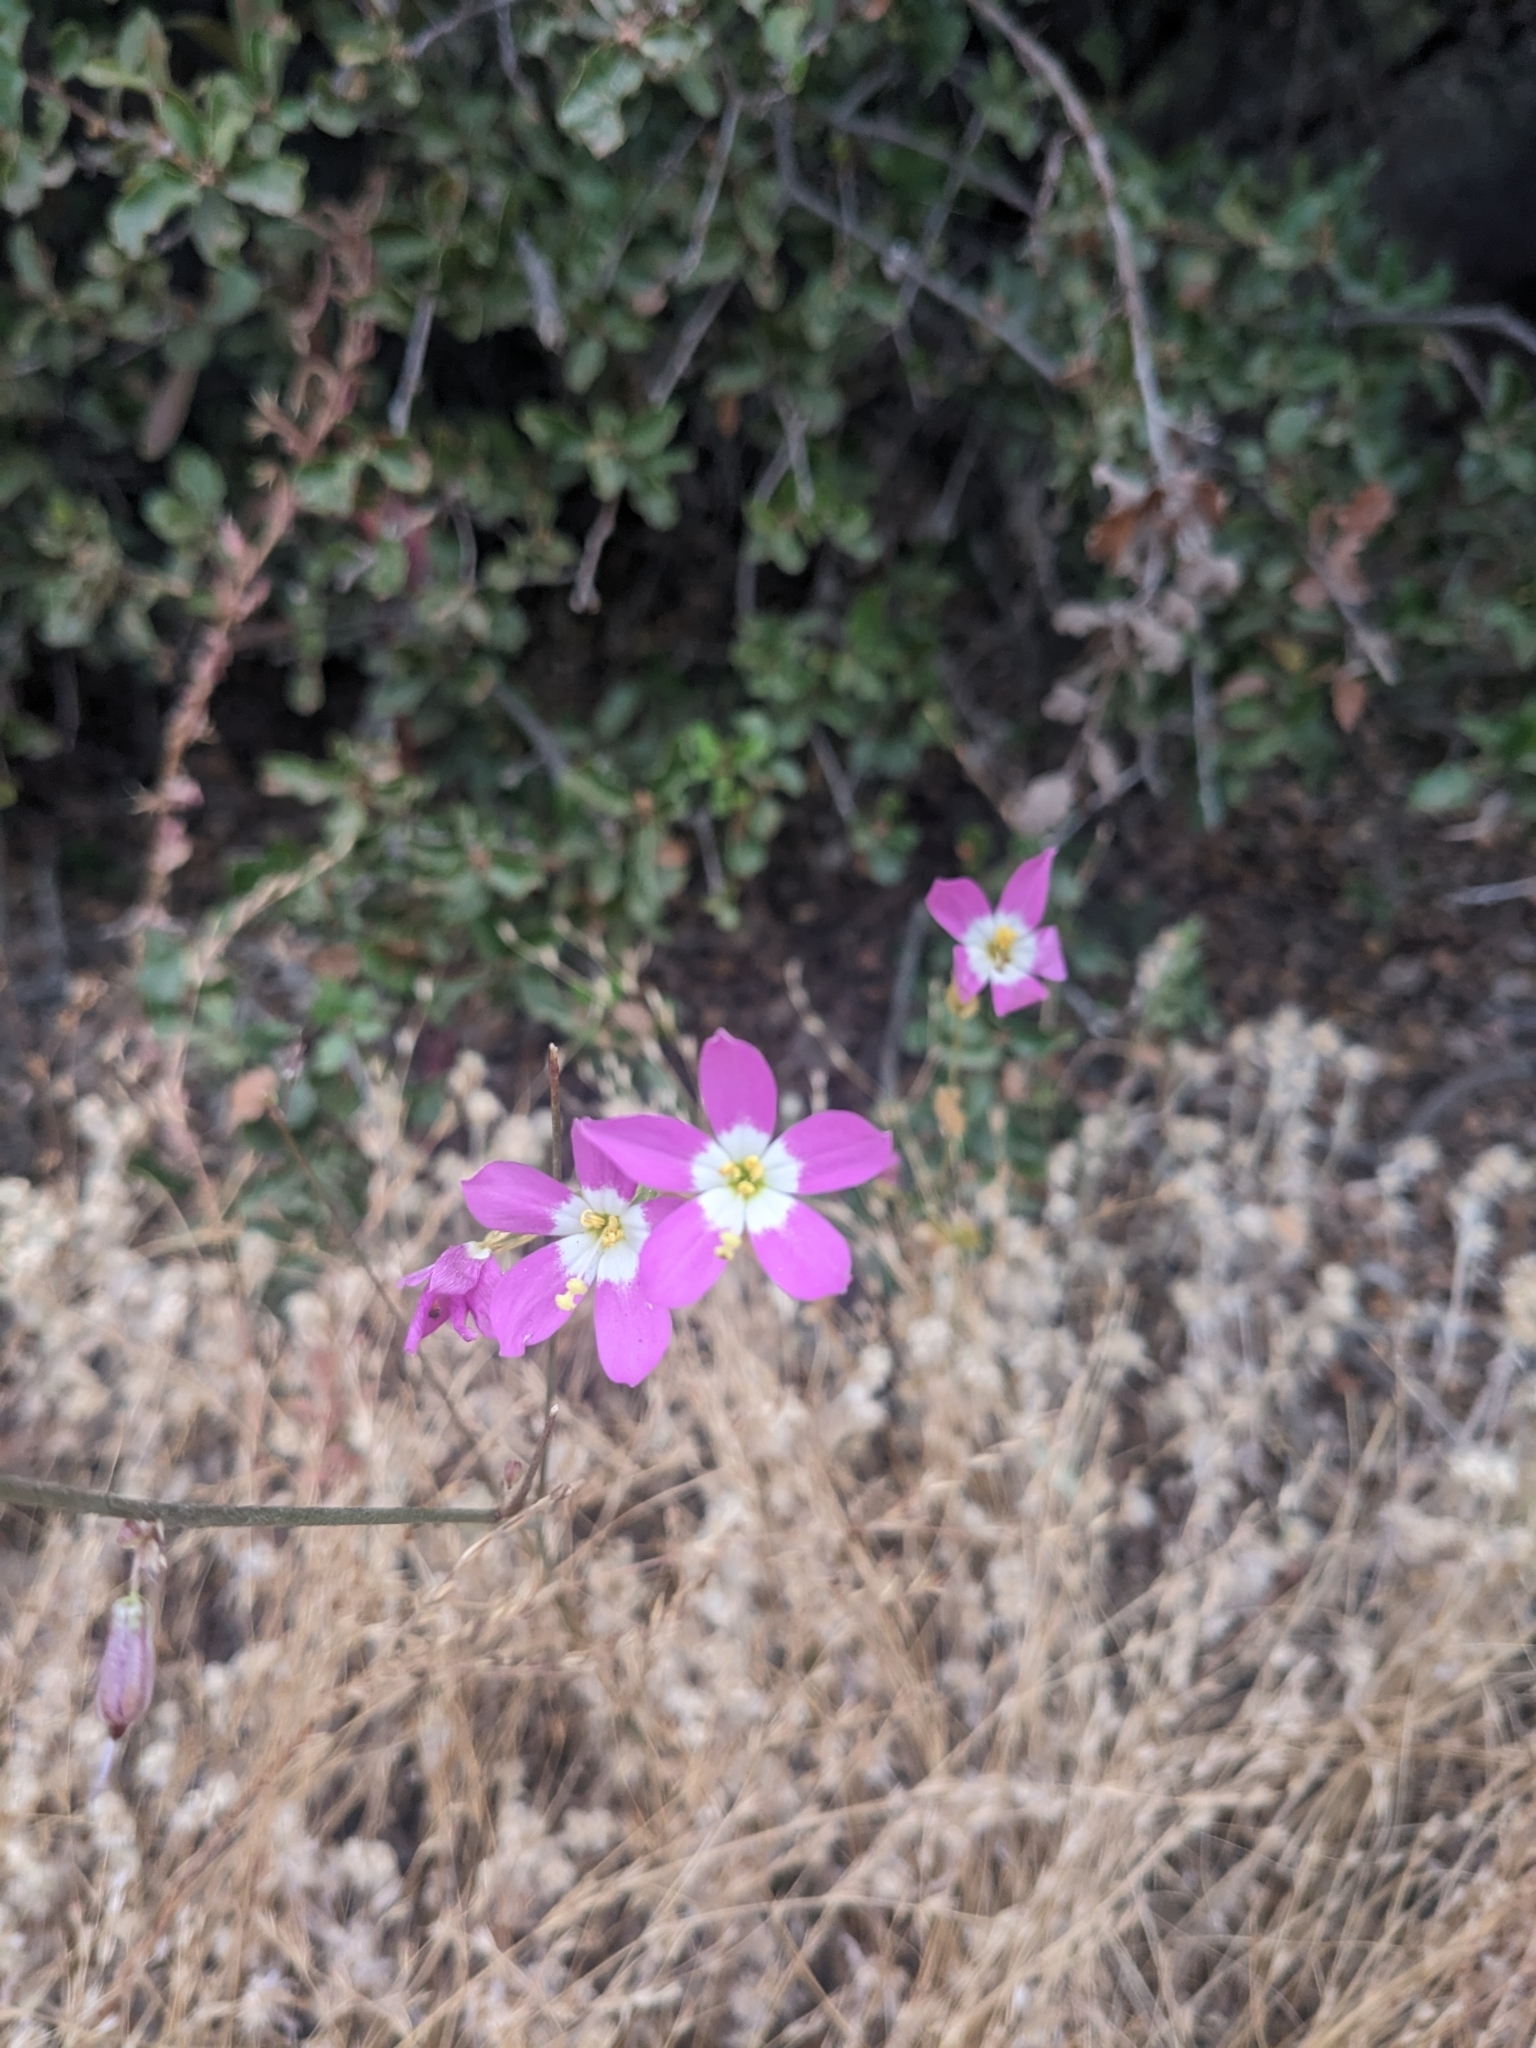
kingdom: Plantae
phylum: Tracheophyta
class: Magnoliopsida
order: Gentianales
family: Gentianaceae
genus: Zeltnera
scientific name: Zeltnera venusta
